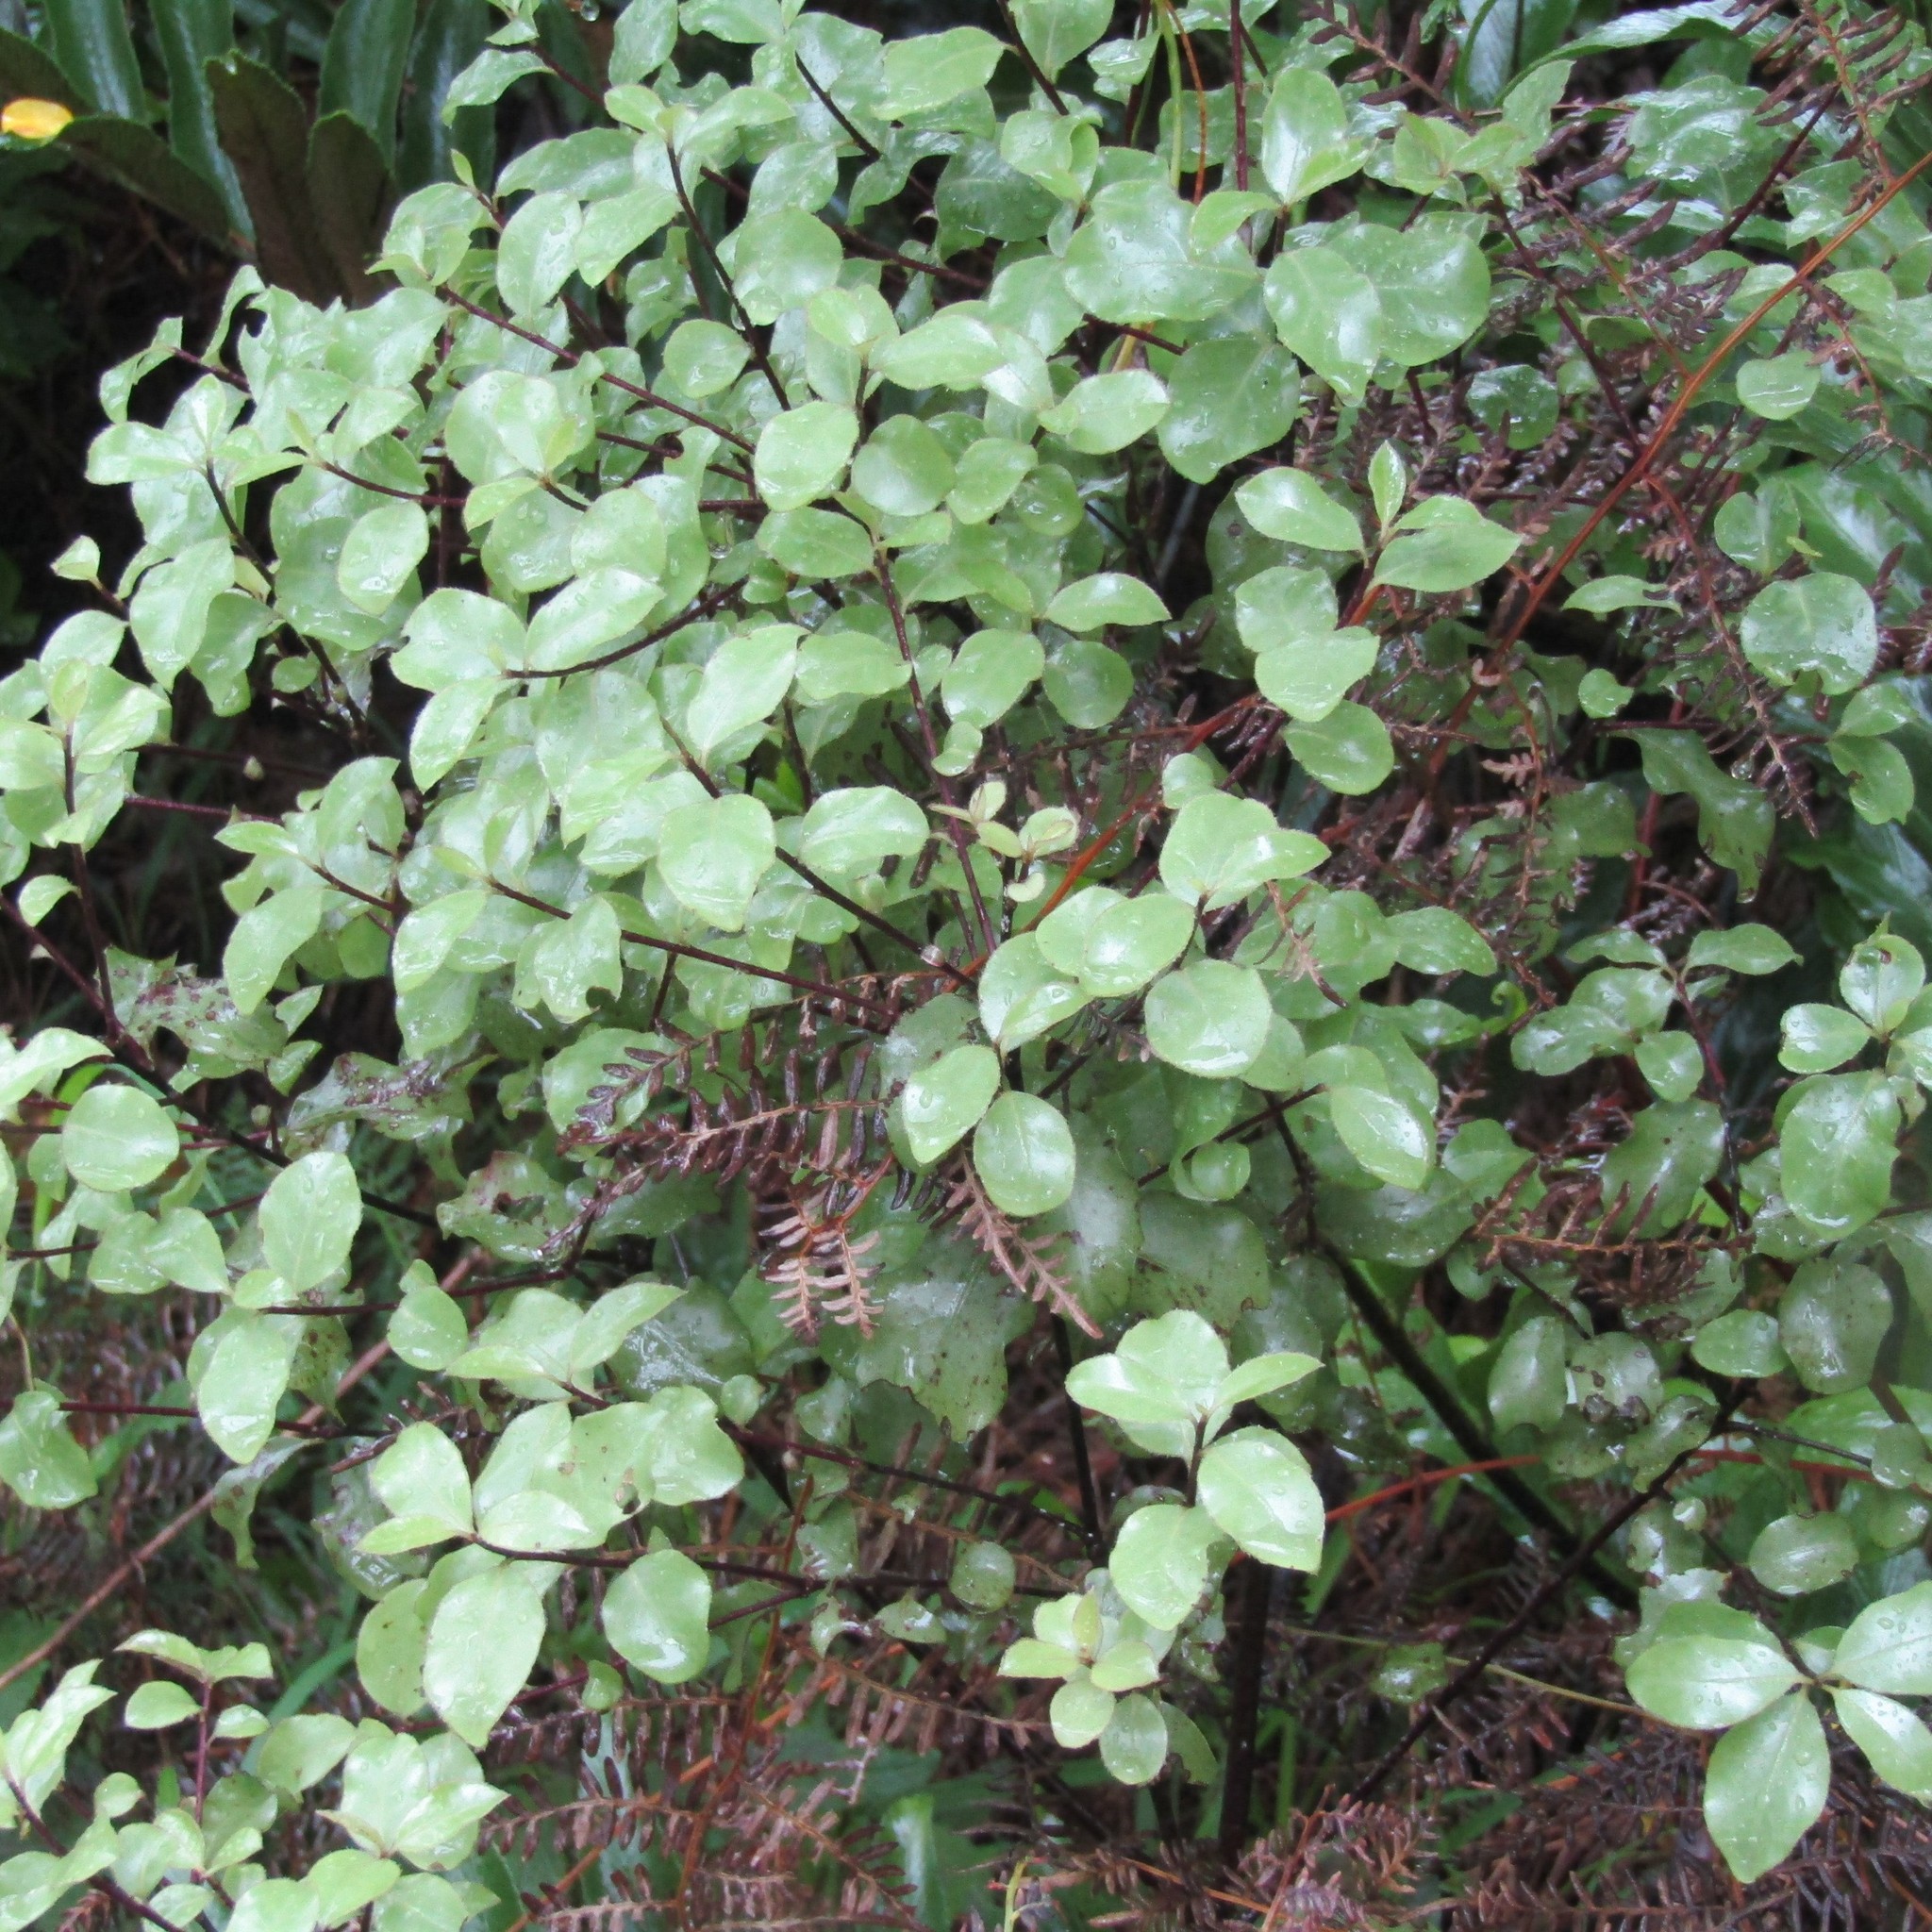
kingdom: Plantae
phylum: Tracheophyta
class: Magnoliopsida
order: Apiales
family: Pittosporaceae
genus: Pittosporum
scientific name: Pittosporum tenuifolium
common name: Kohuhu
